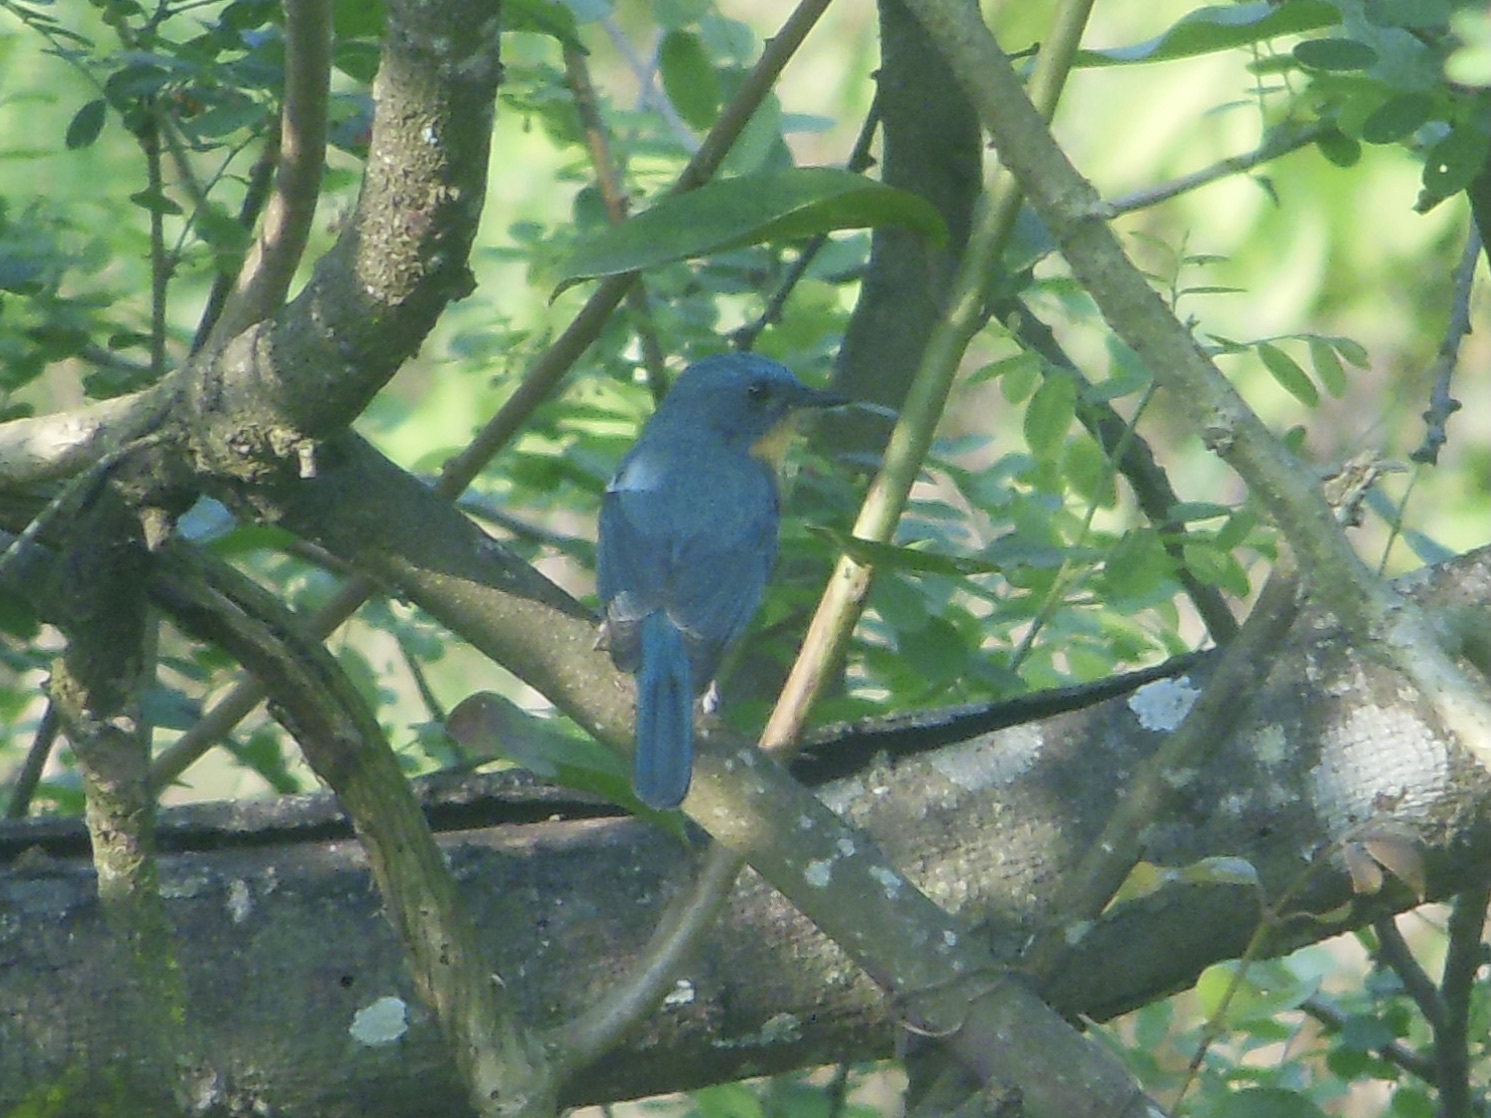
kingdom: Animalia
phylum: Chordata
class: Aves
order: Passeriformes
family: Muscicapidae
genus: Cyornis
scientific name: Cyornis tickelliae
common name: Tickell's blue flycatcher
